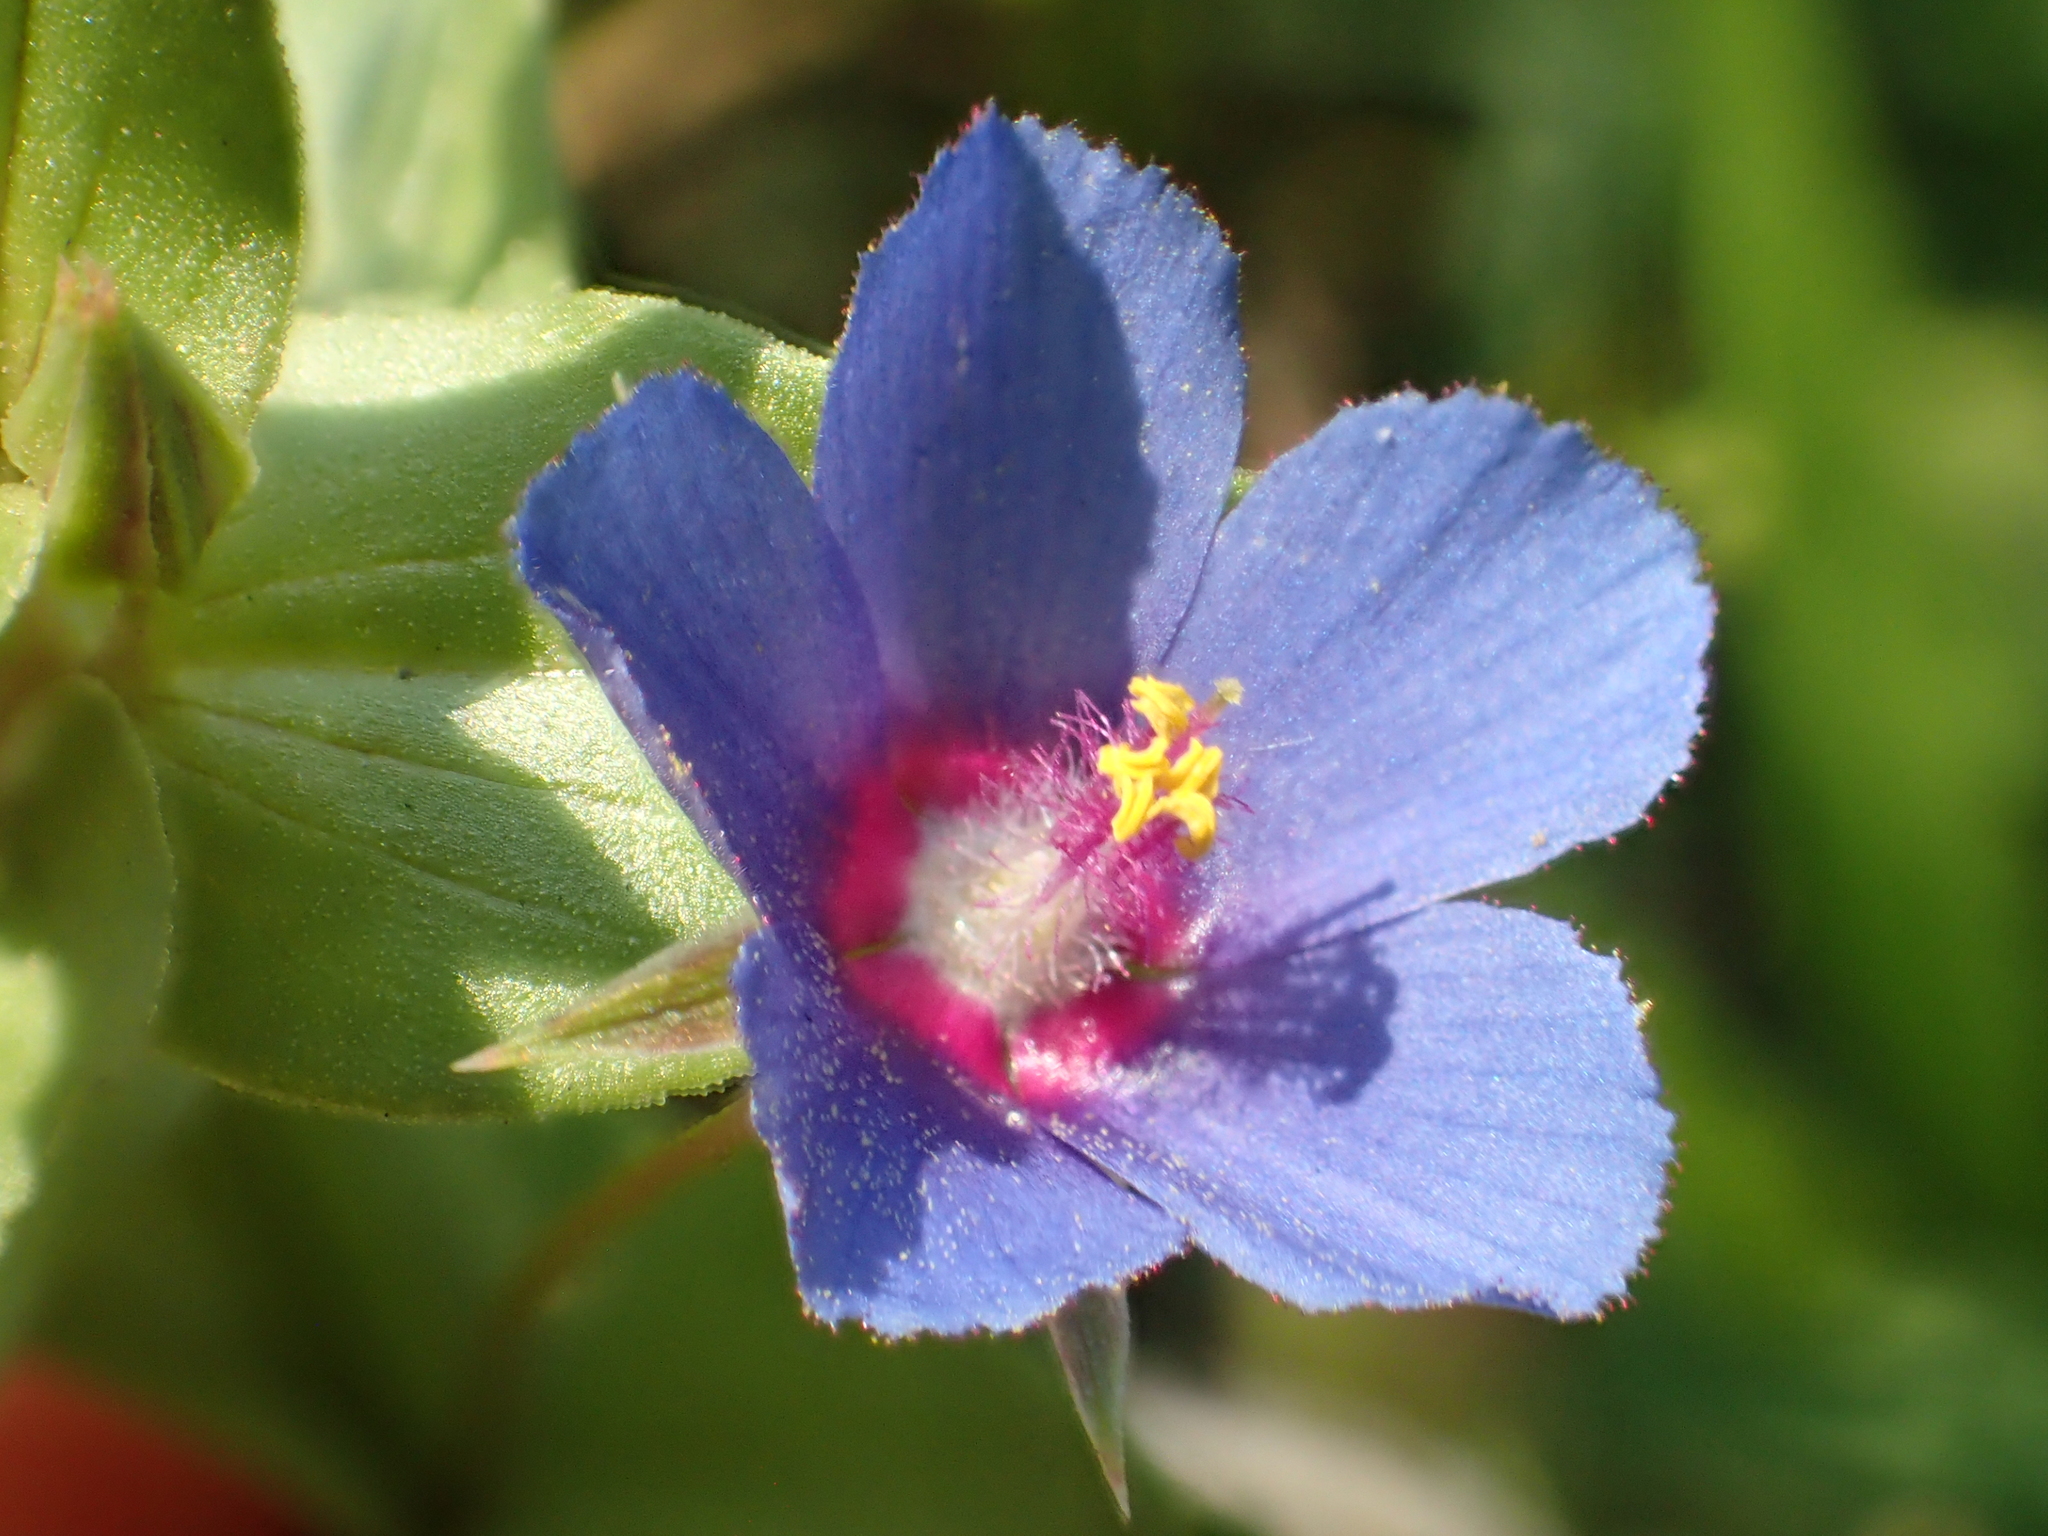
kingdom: Plantae
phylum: Tracheophyta
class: Magnoliopsida
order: Ericales
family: Primulaceae
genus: Lysimachia
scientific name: Lysimachia loeflingii
